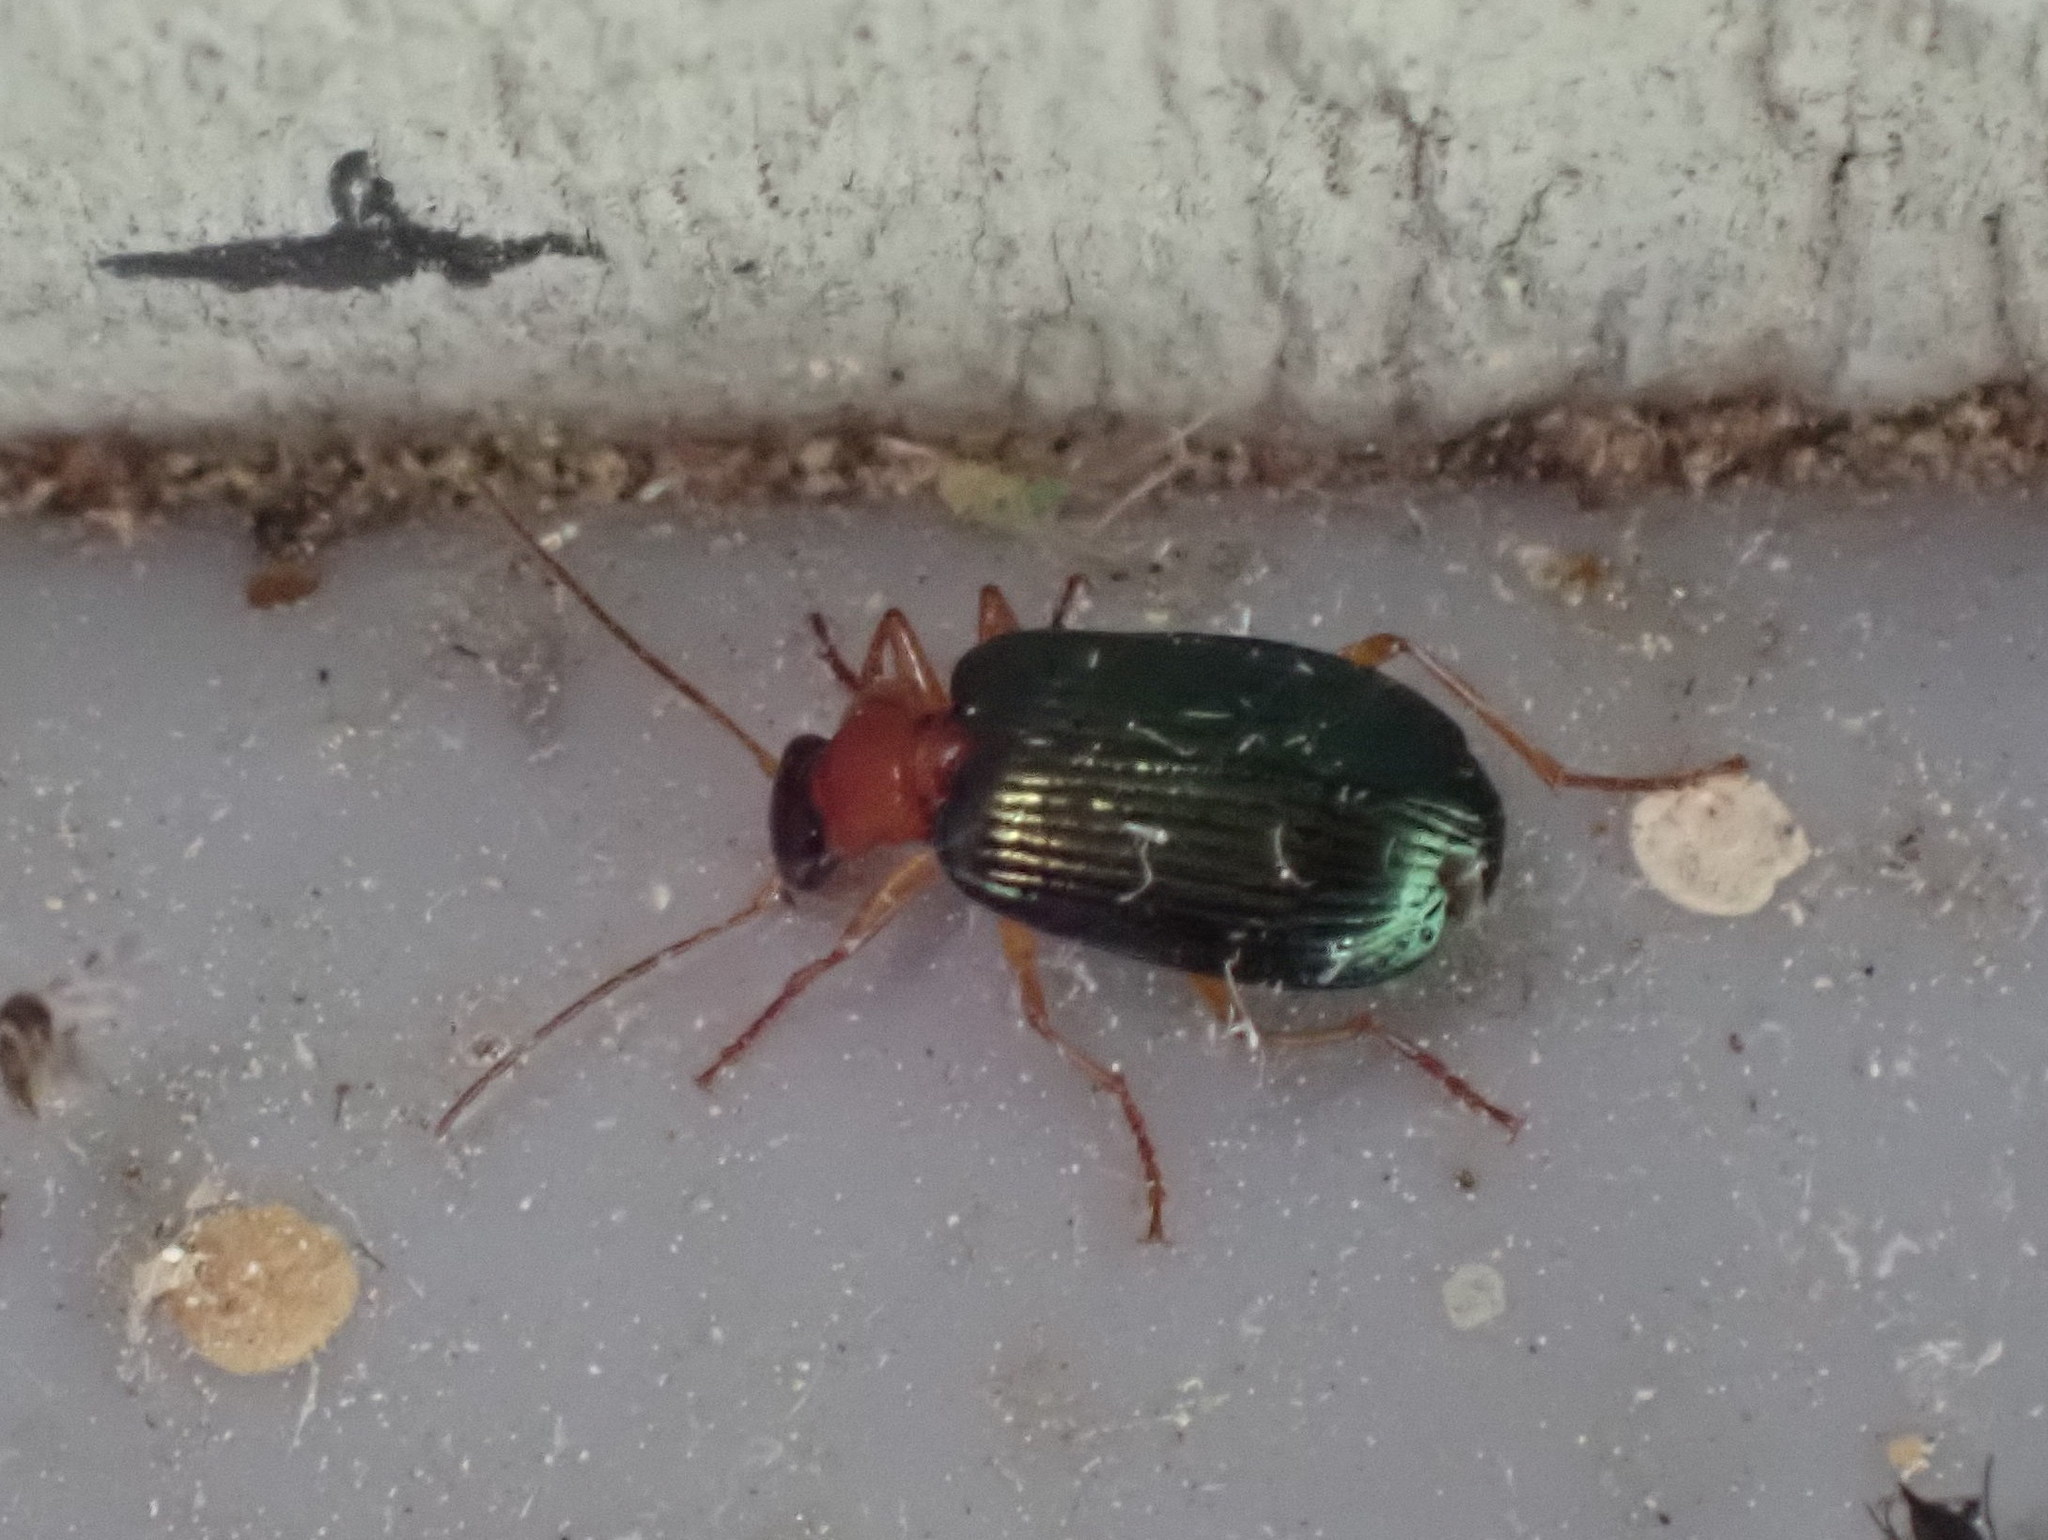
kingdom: Animalia
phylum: Arthropoda
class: Insecta
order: Coleoptera
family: Carabidae
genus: Lebia
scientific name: Lebia tricolor
